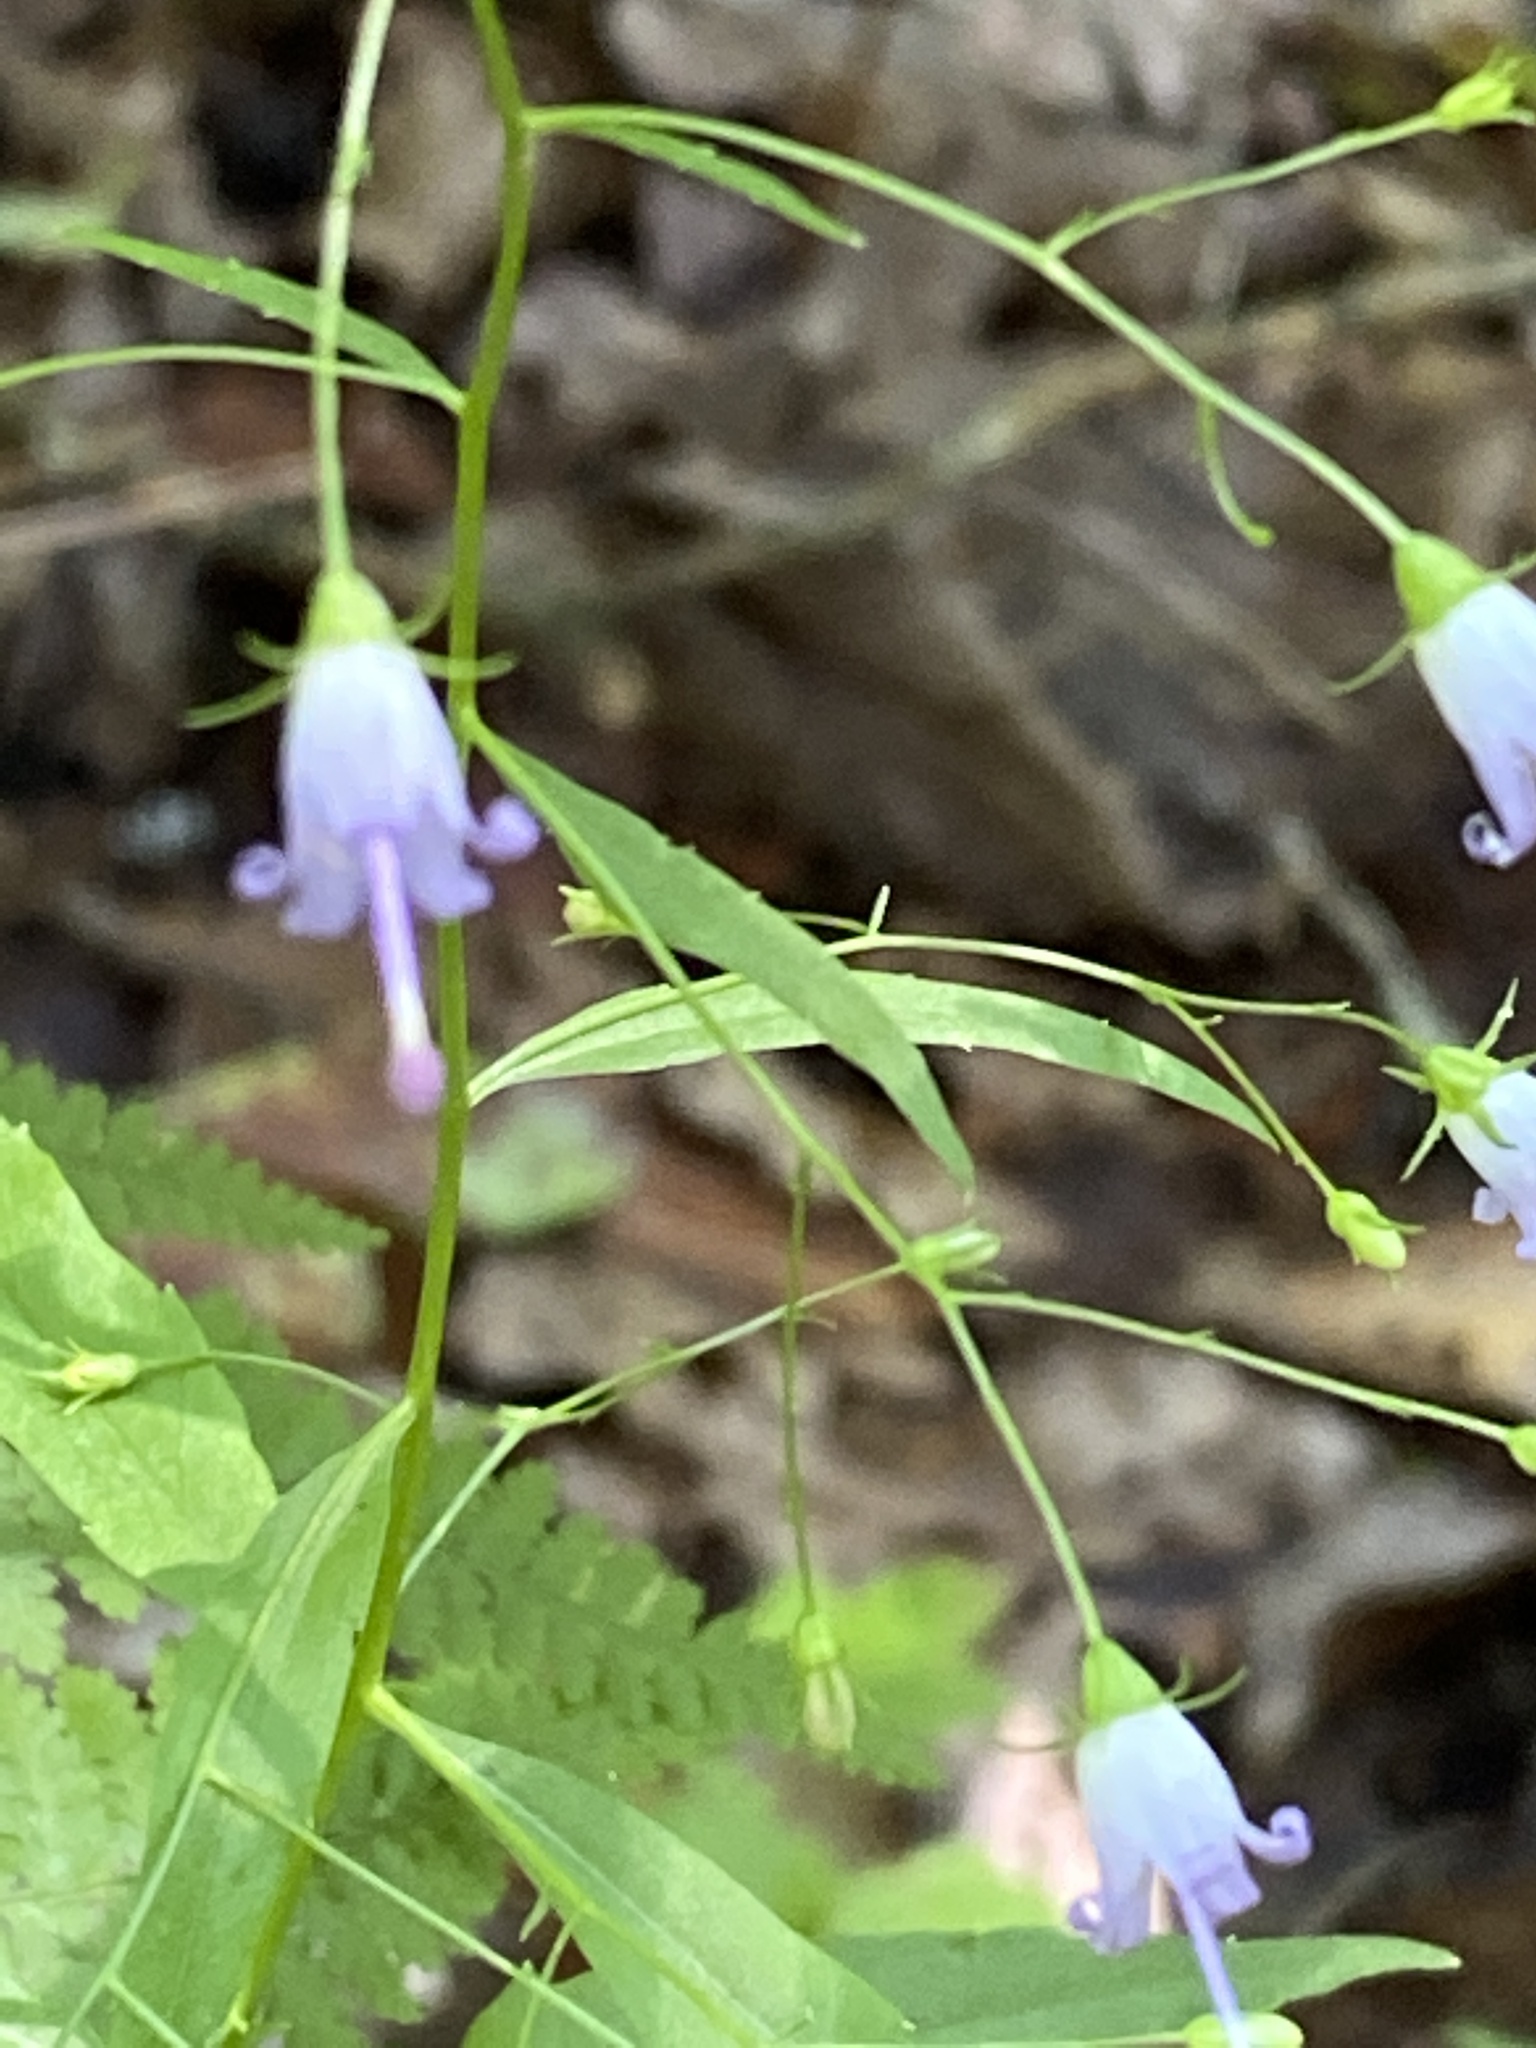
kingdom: Plantae
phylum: Tracheophyta
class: Magnoliopsida
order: Asterales
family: Campanulaceae
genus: Campanula
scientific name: Campanula divaricata
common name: Appalachian bellflower
